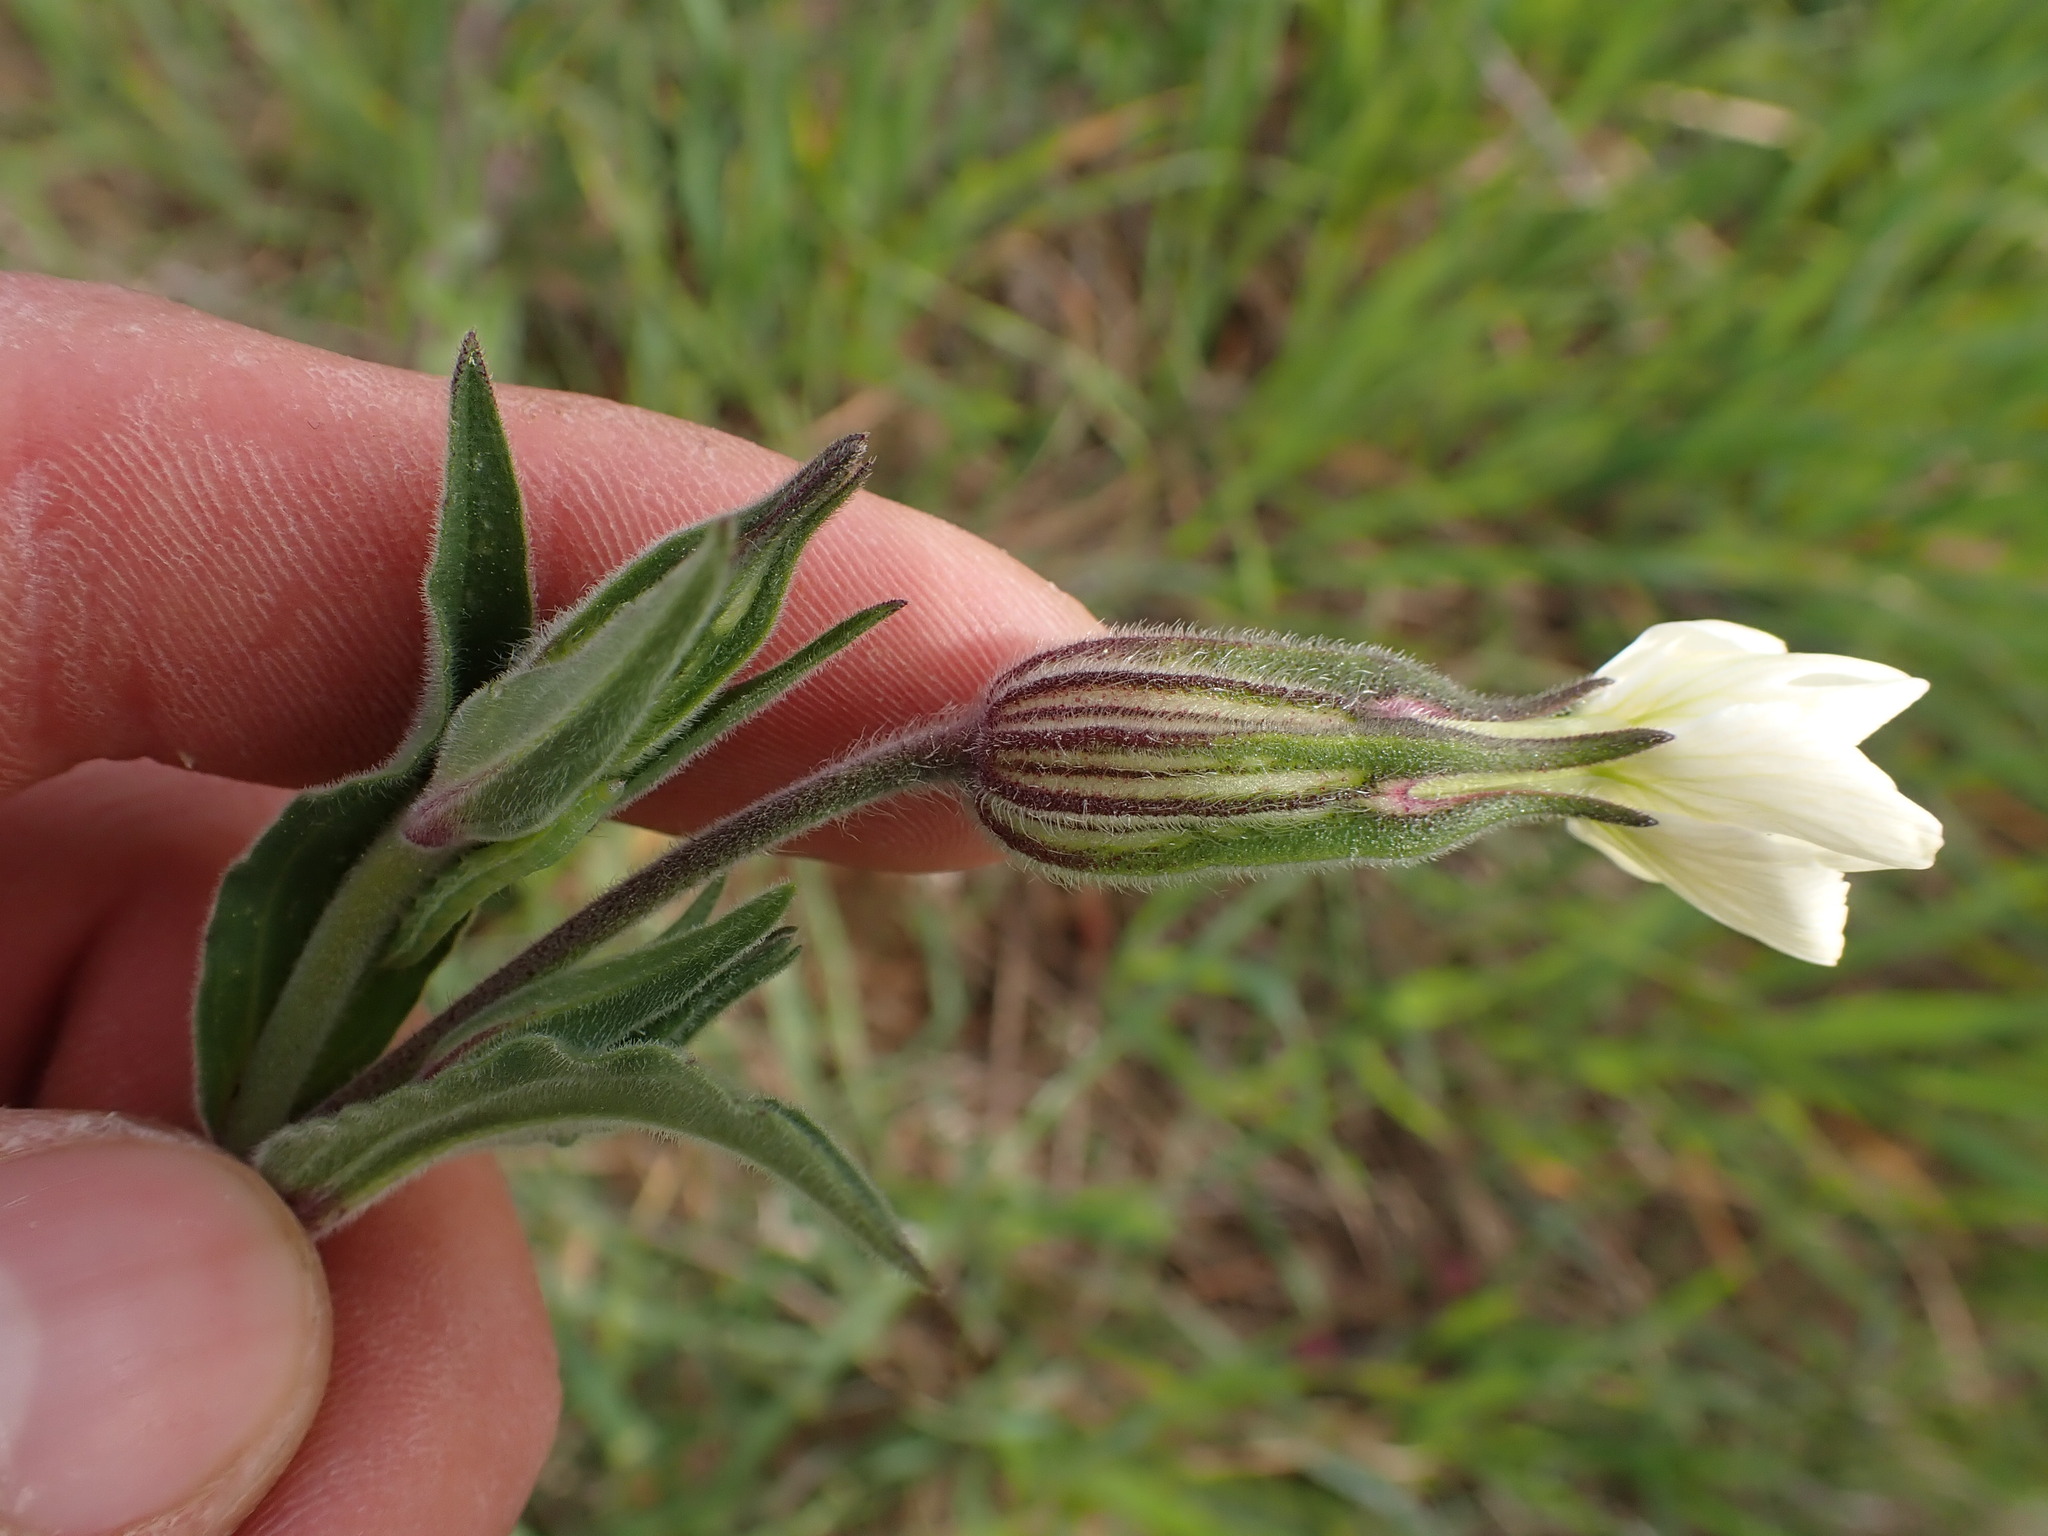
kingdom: Plantae
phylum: Tracheophyta
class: Magnoliopsida
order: Caryophyllales
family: Caryophyllaceae
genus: Silene
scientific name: Silene latifolia
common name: White campion
